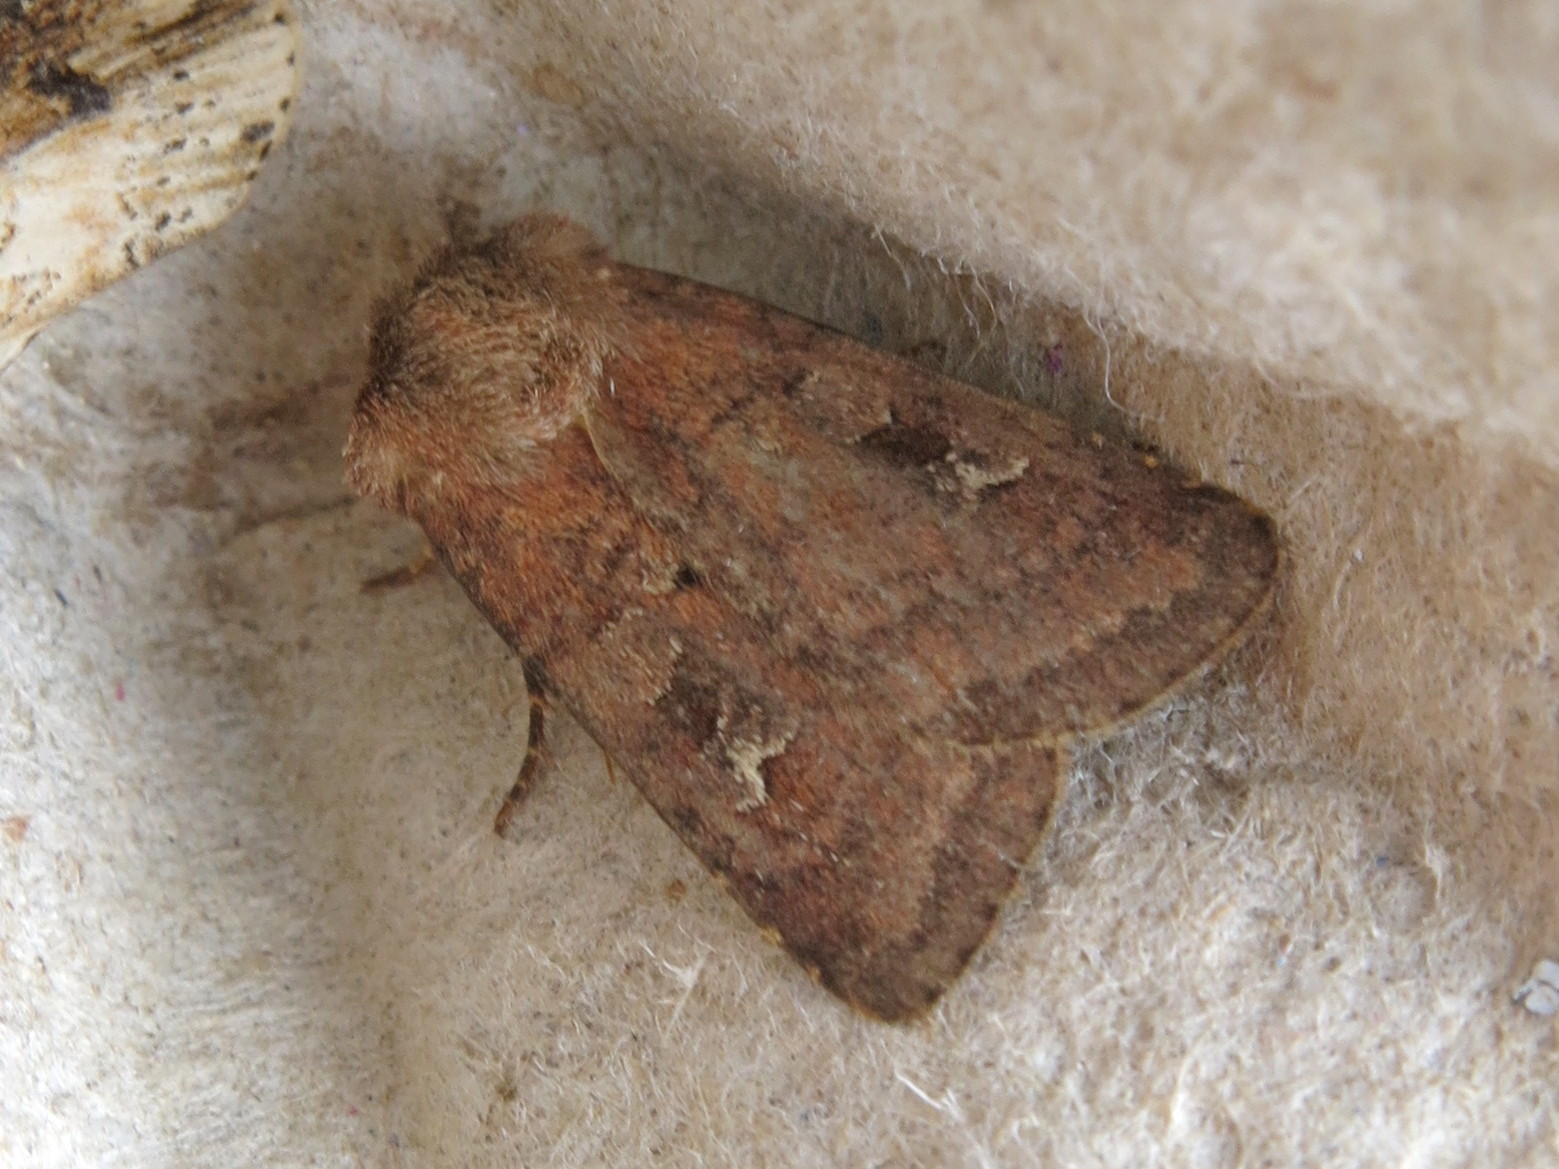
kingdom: Animalia
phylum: Arthropoda
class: Insecta
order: Lepidoptera
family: Noctuidae
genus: Diarsia
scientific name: Diarsia rubi
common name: Small square-spot
